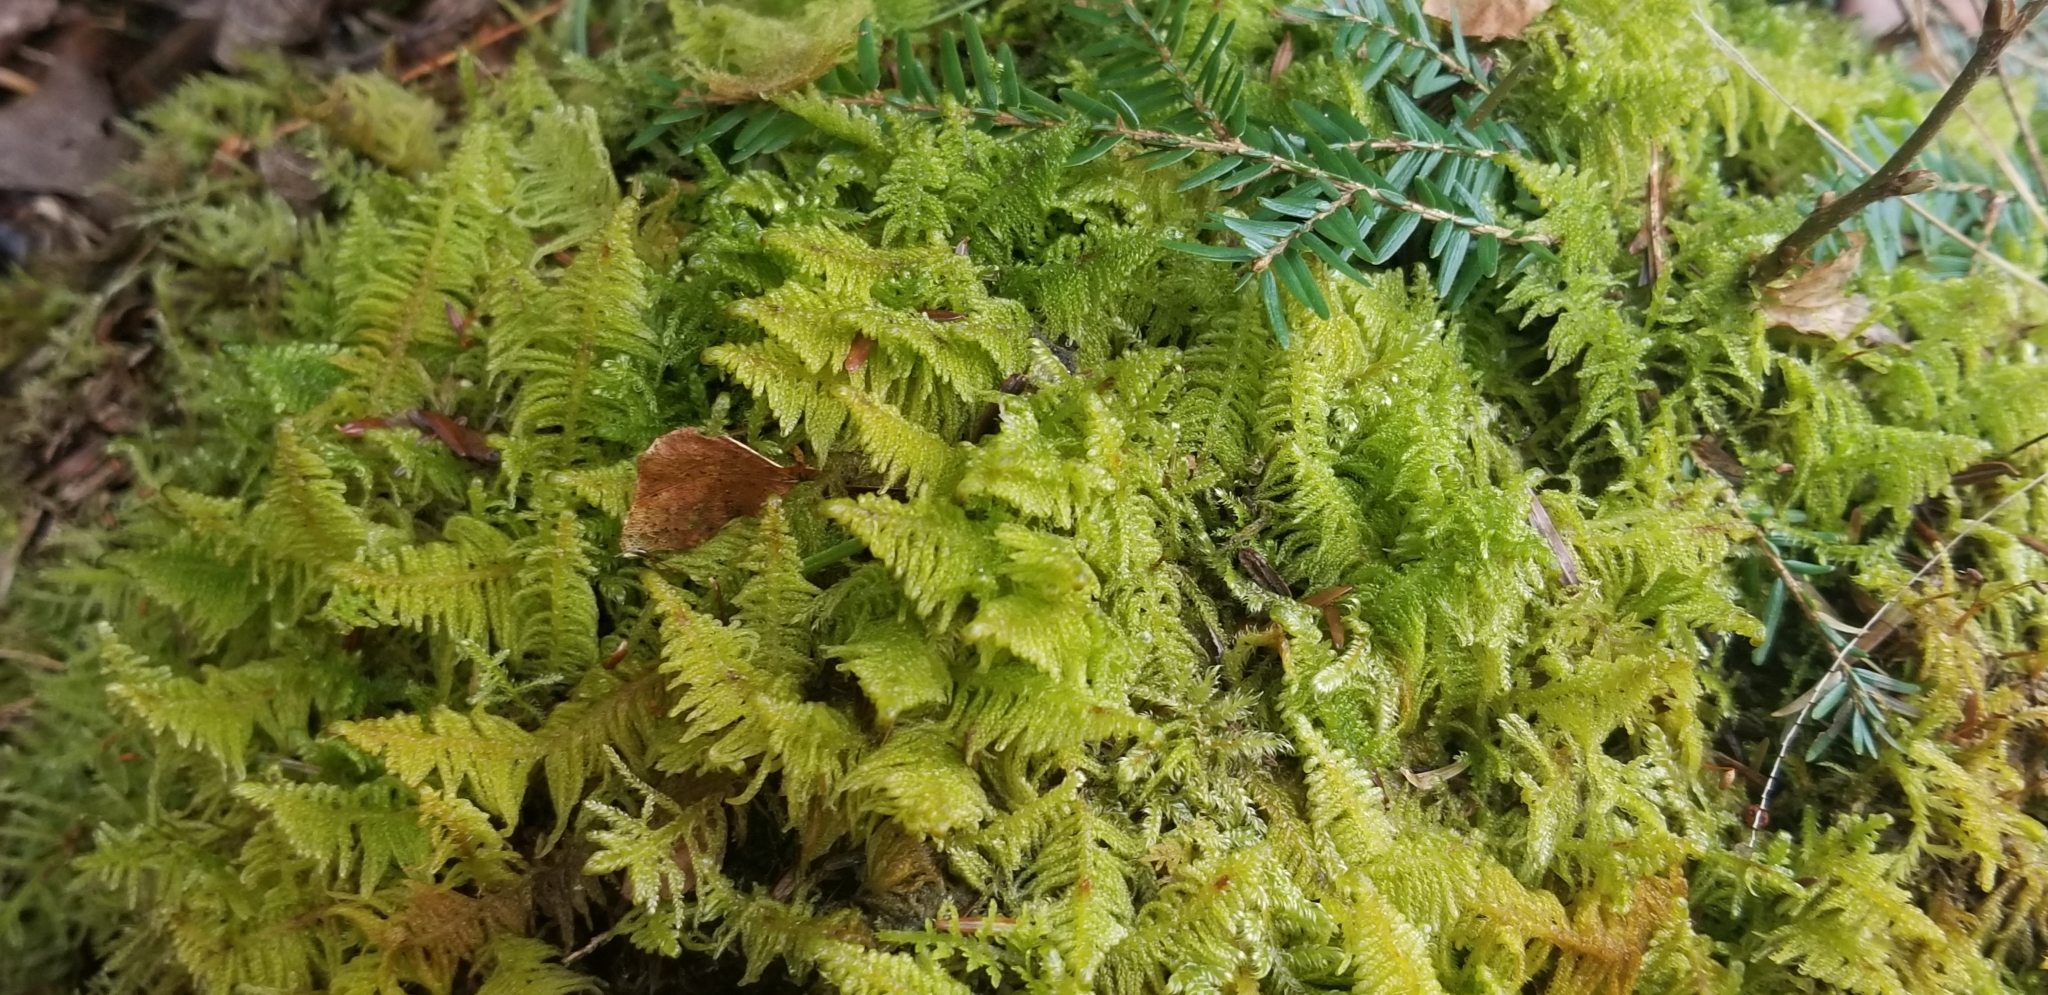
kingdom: Plantae
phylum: Bryophyta
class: Bryopsida
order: Hypnales
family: Pylaisiaceae
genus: Ptilium
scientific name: Ptilium crista-castrensis
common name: Knight's plume moss
